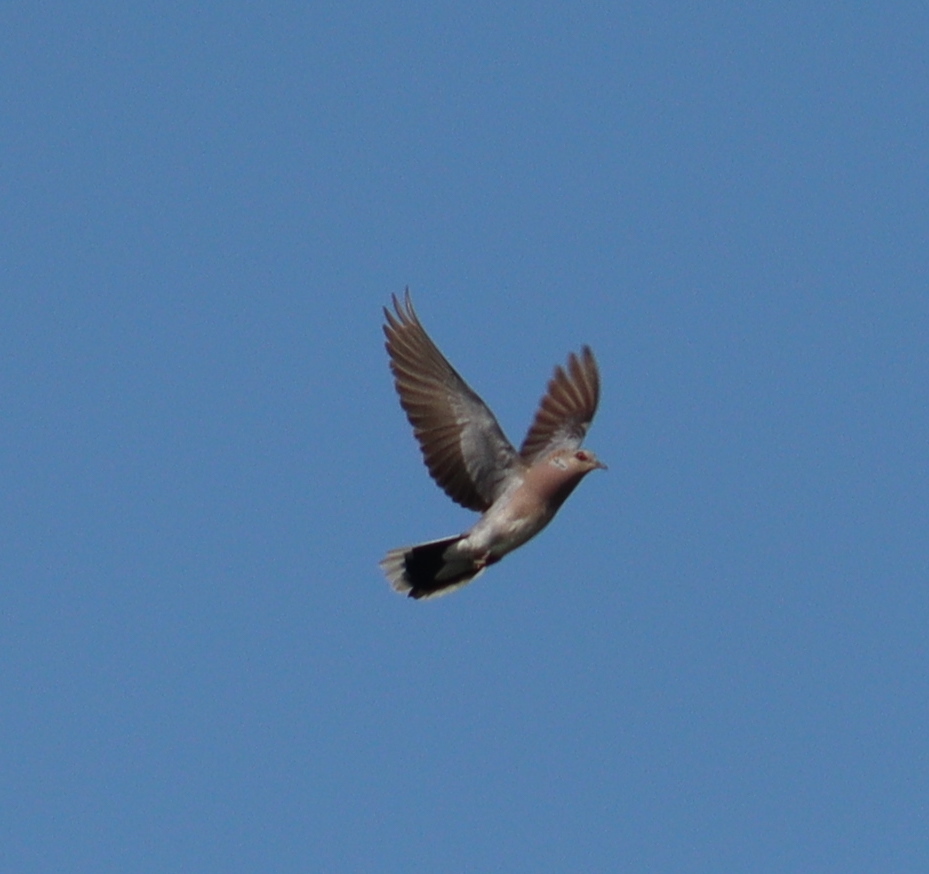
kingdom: Animalia
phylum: Chordata
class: Aves
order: Columbiformes
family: Columbidae
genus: Streptopelia
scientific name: Streptopelia turtur
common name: European turtle dove
